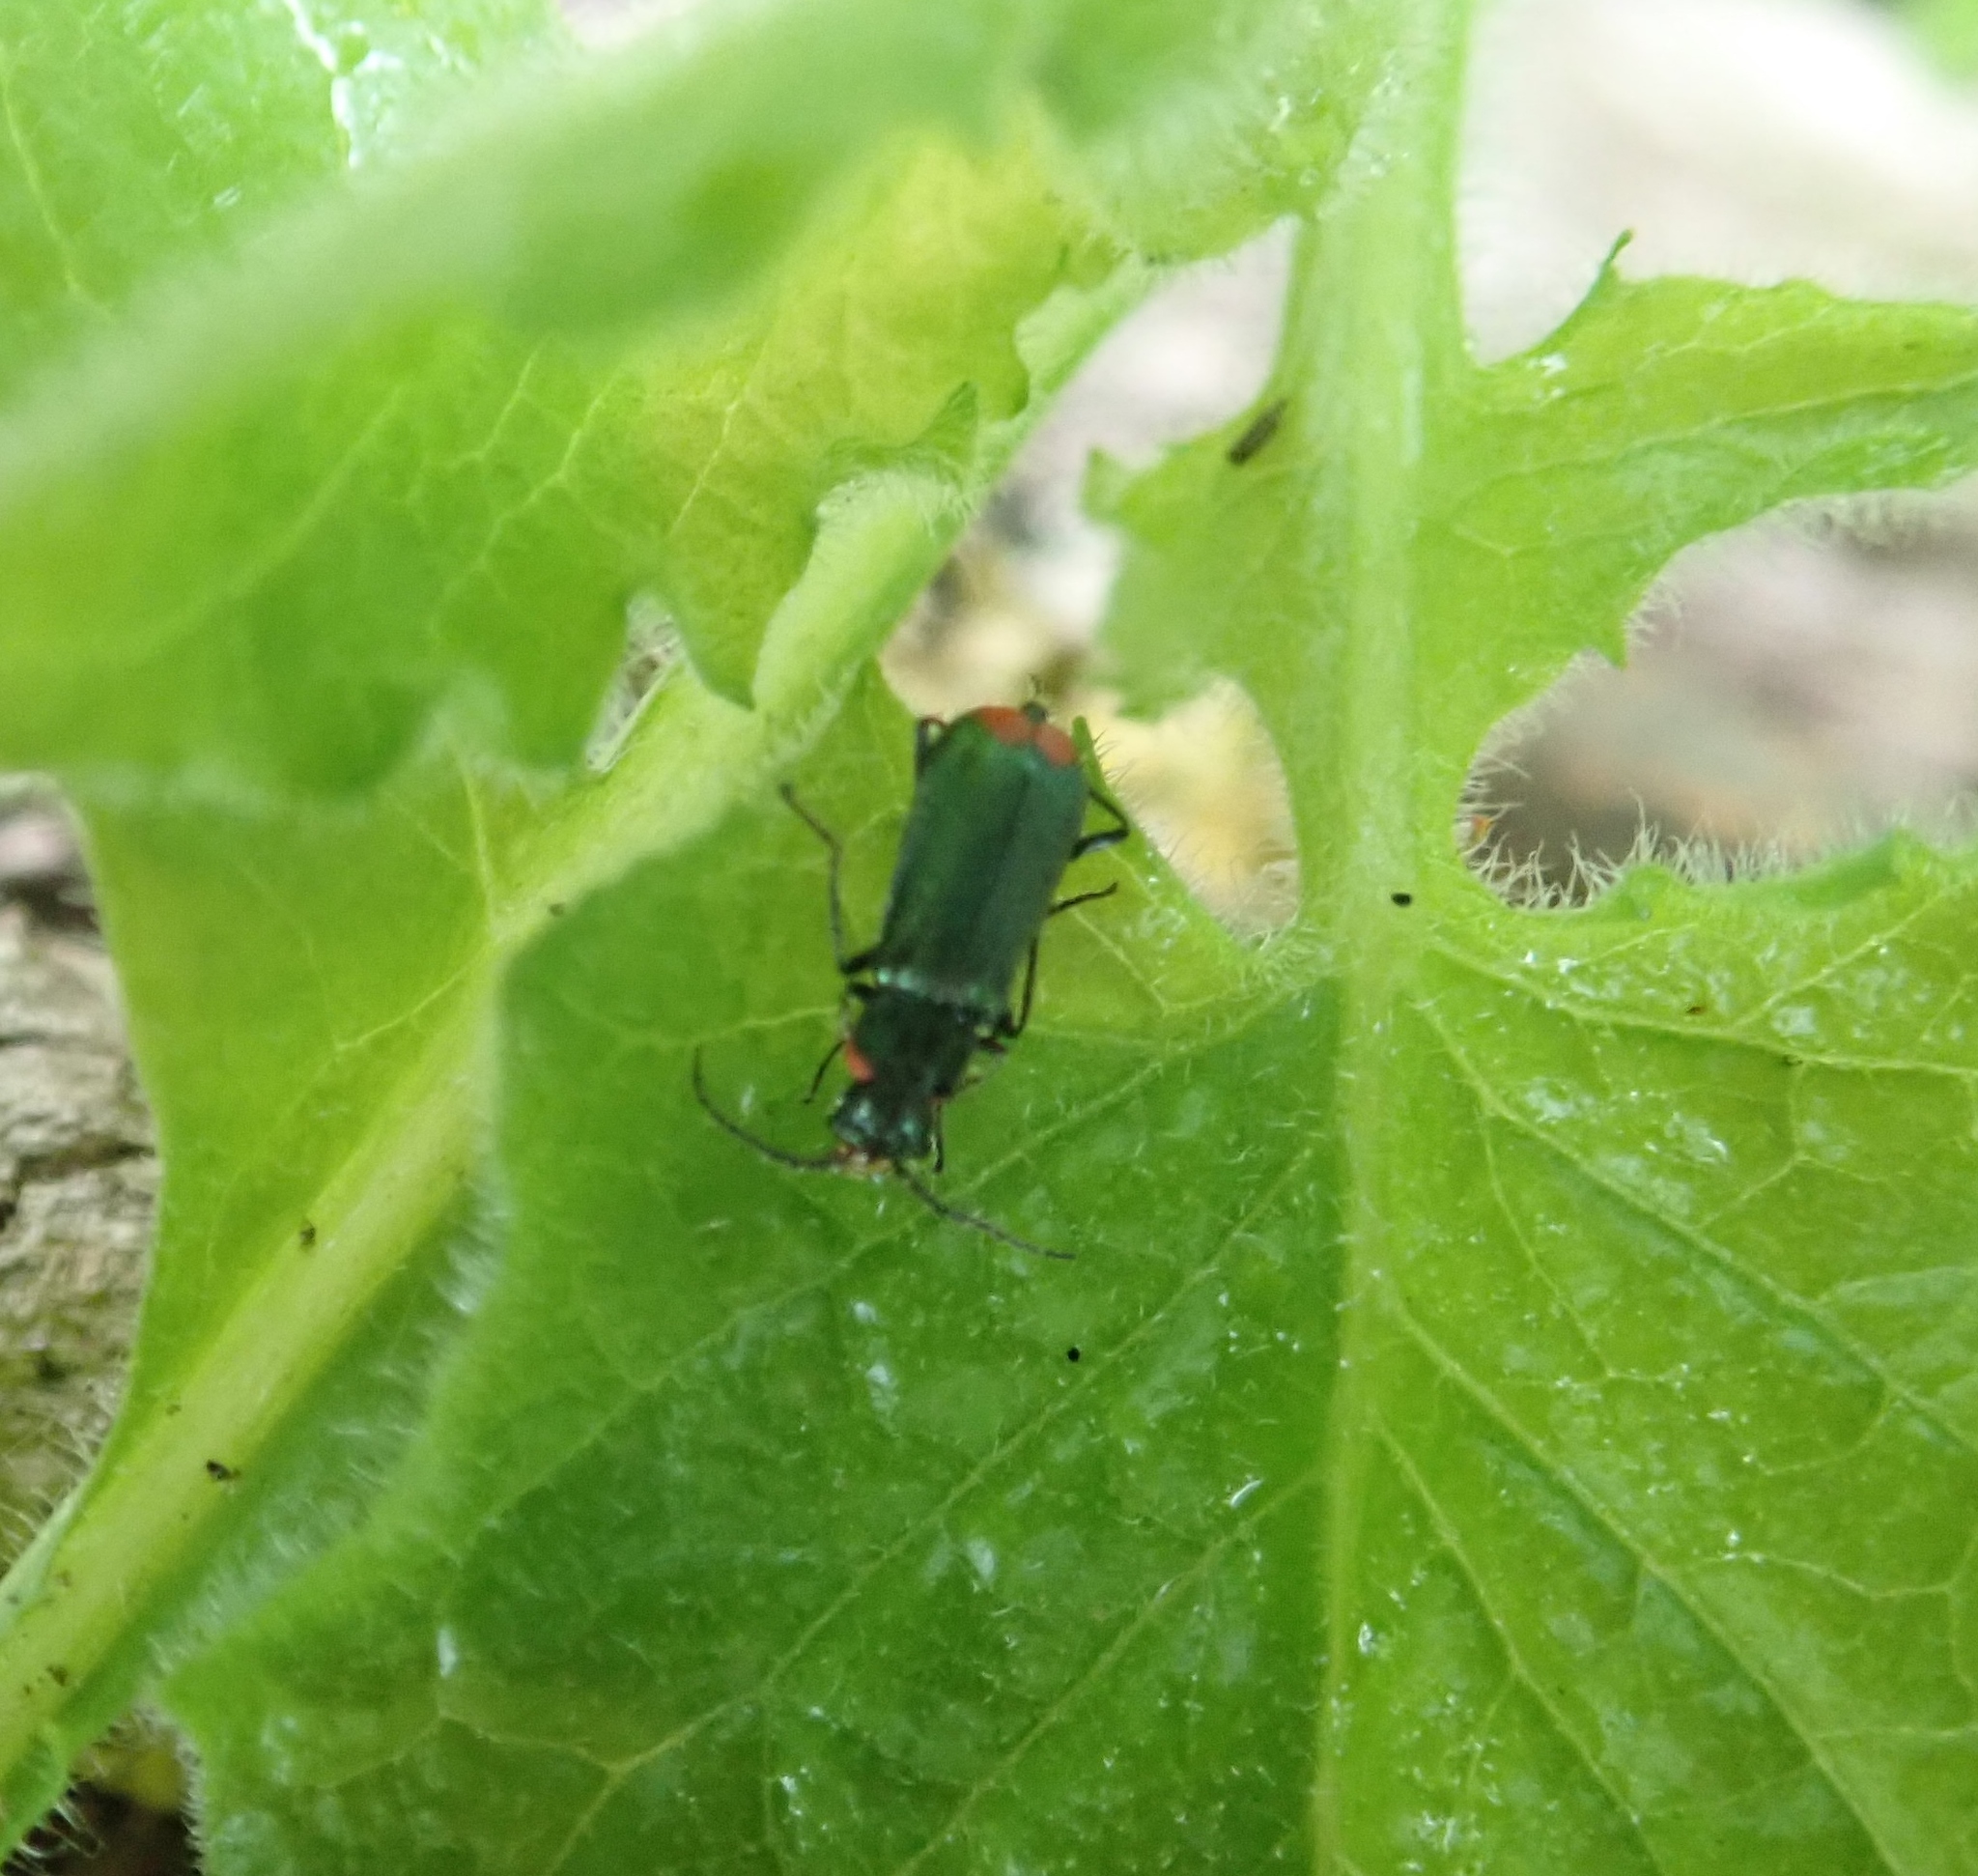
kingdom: Animalia
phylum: Arthropoda
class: Insecta
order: Coleoptera
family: Melyridae
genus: Malachius
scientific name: Malachius bipustulatus
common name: Malachite beetle
